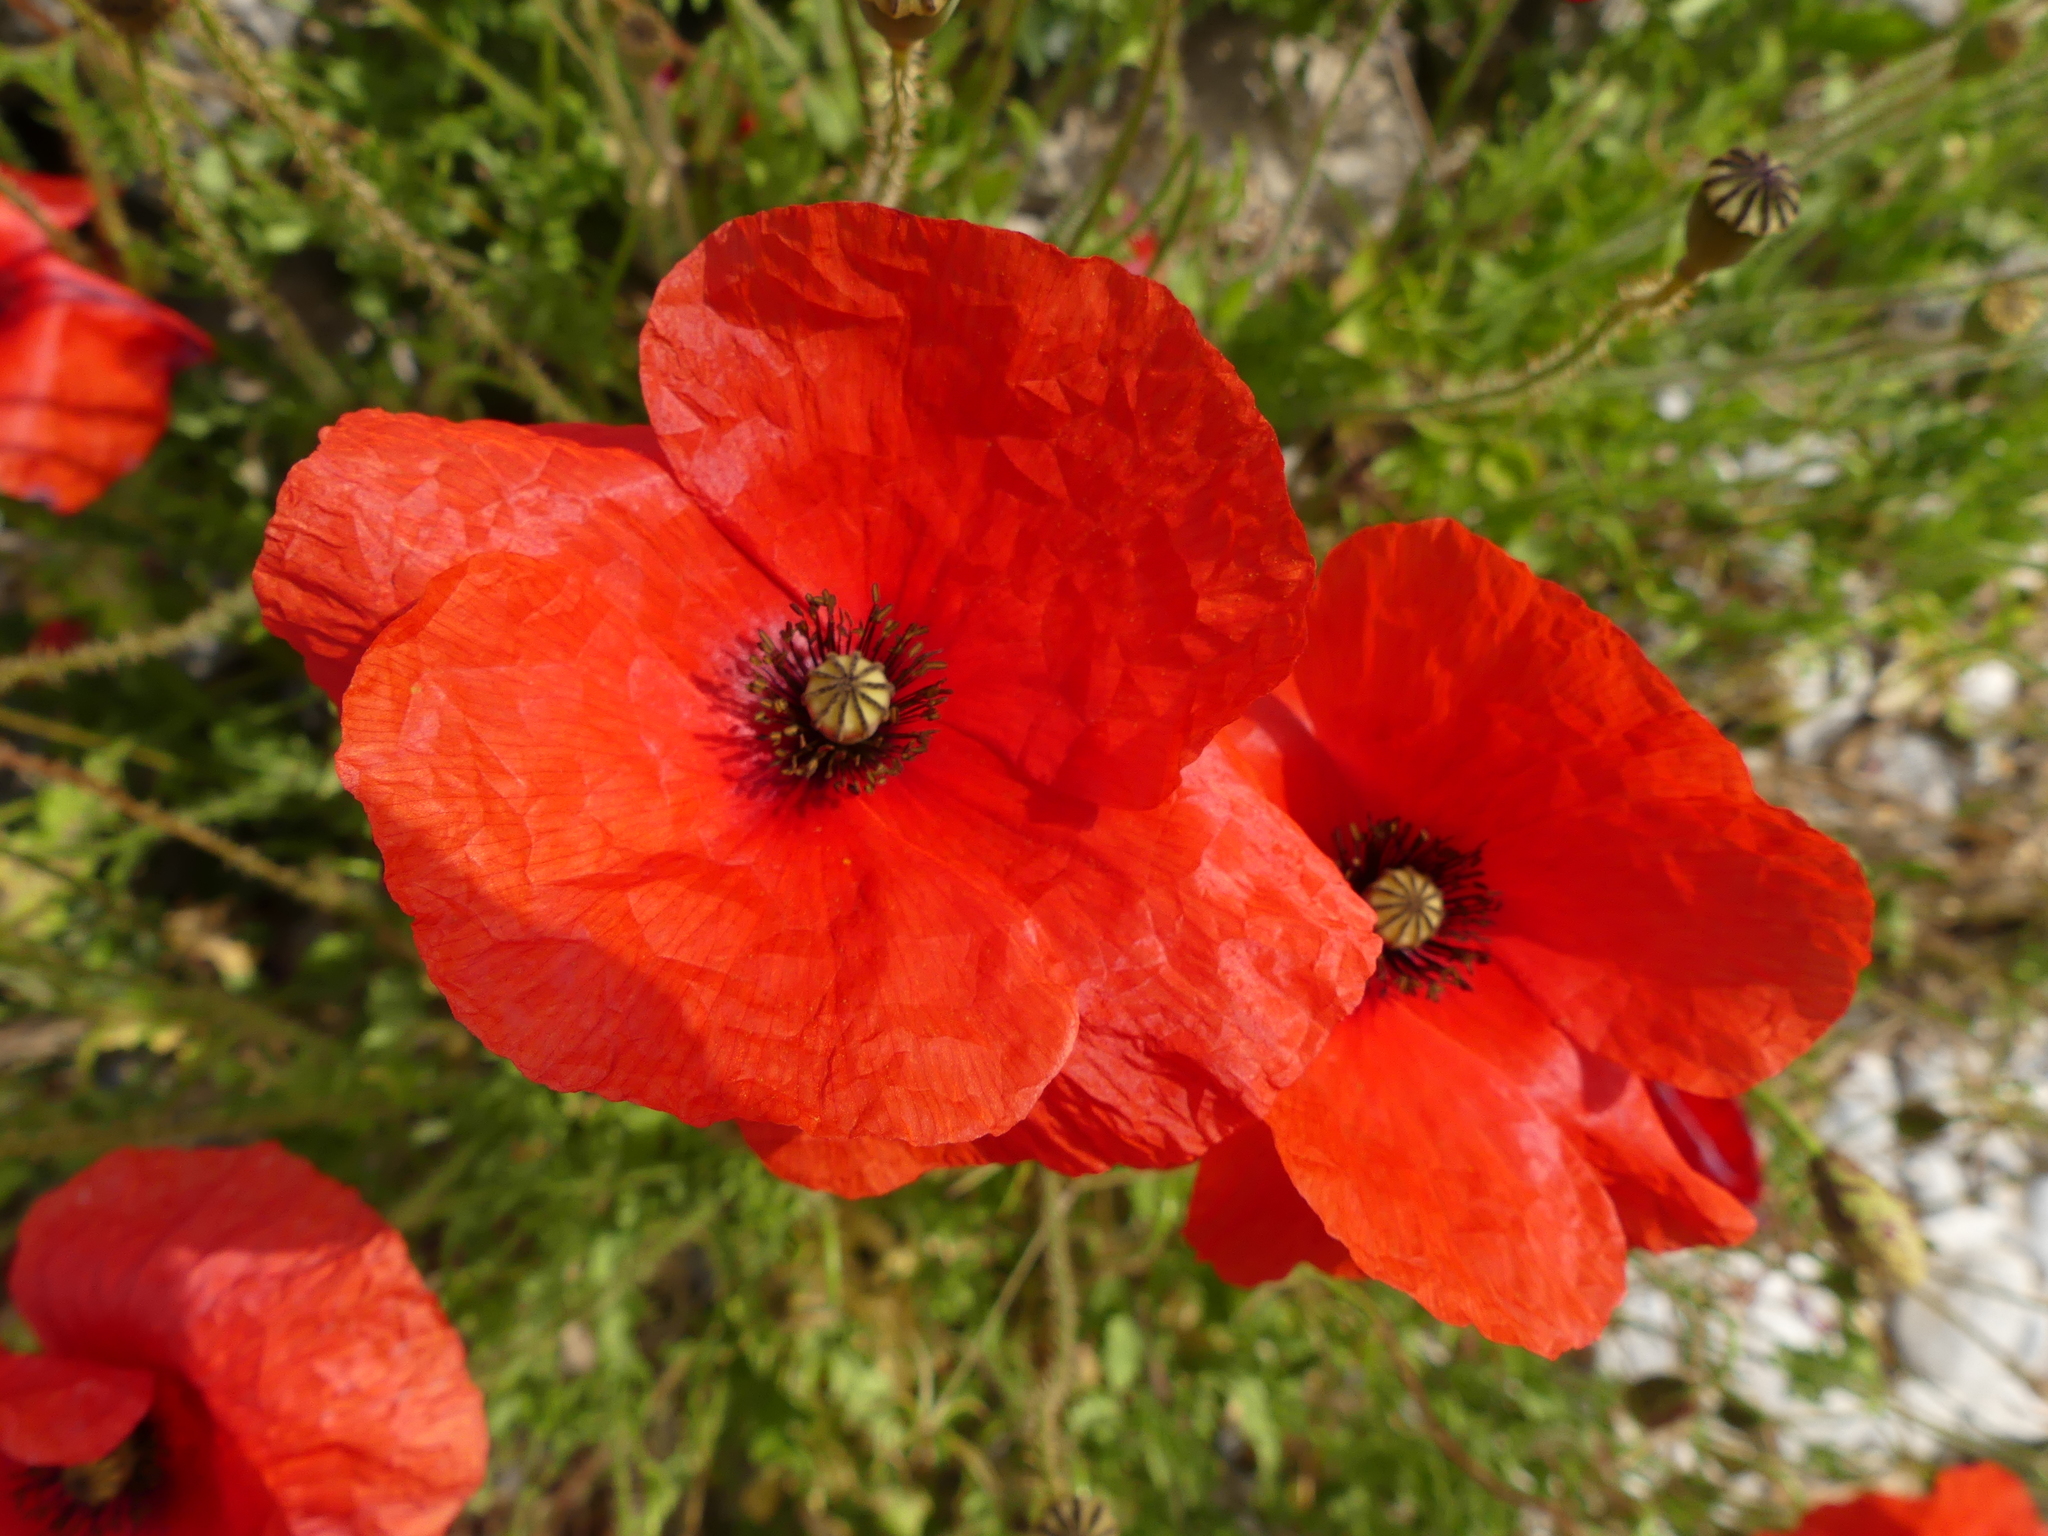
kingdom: Plantae
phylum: Tracheophyta
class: Magnoliopsida
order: Ranunculales
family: Papaveraceae
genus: Papaver
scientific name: Papaver rhoeas
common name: Corn poppy
